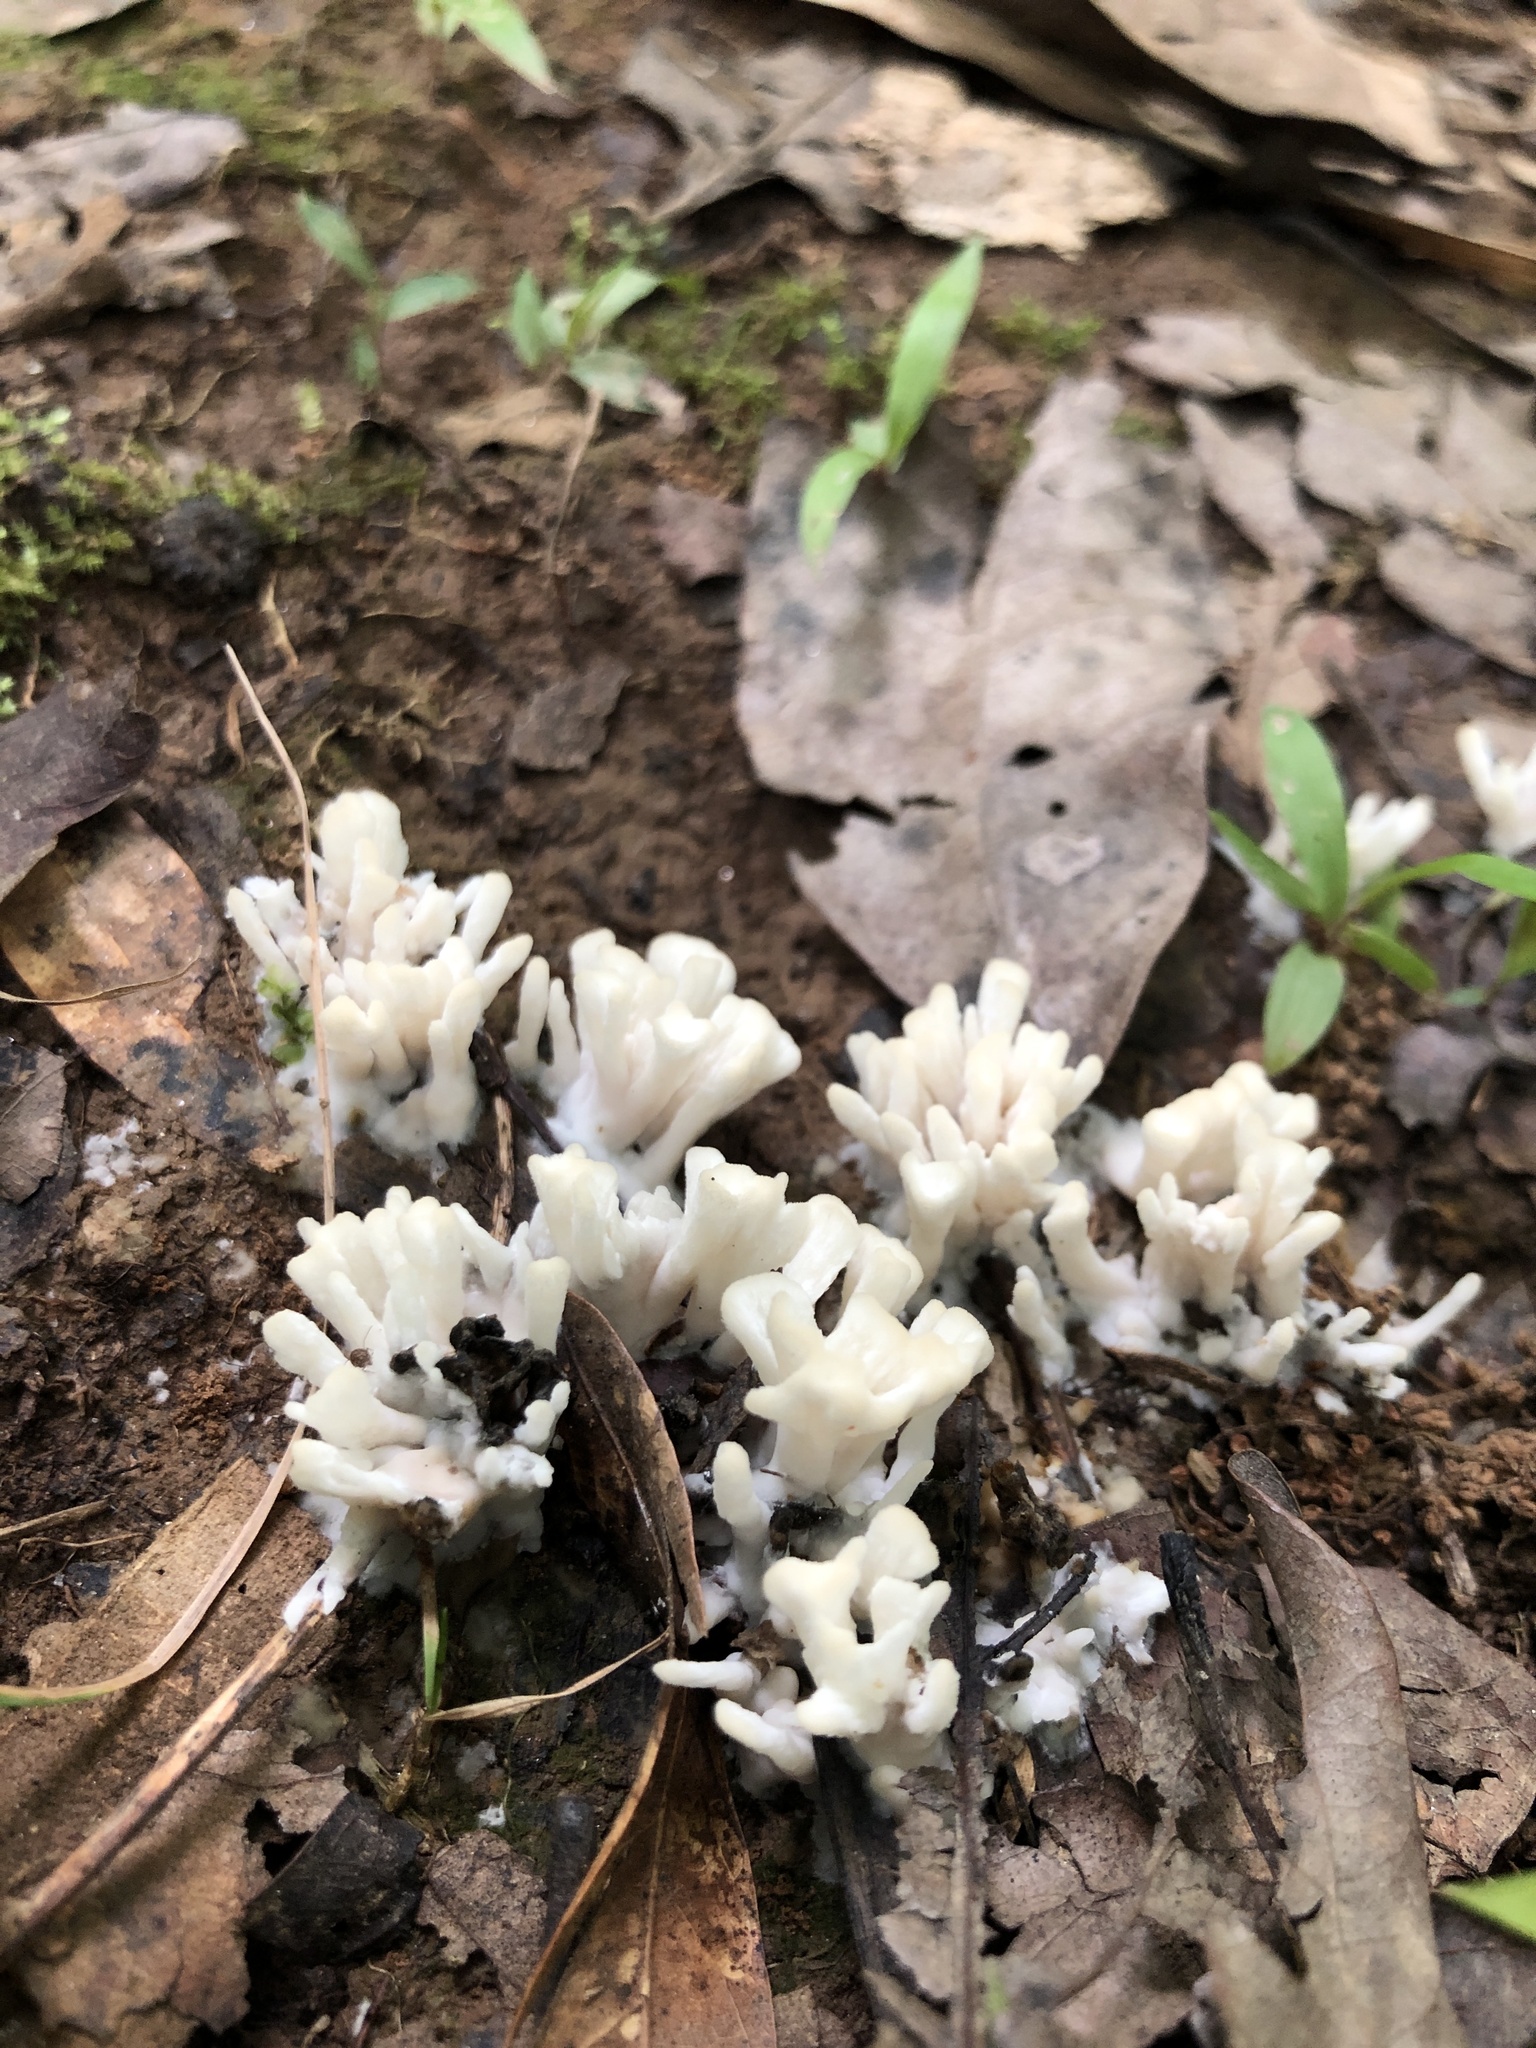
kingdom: Fungi
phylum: Basidiomycota
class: Agaricomycetes
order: Sebacinales
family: Sebacinaceae
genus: Sebacina
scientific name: Sebacina schweinitzii
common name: Jellied false coral fungus
